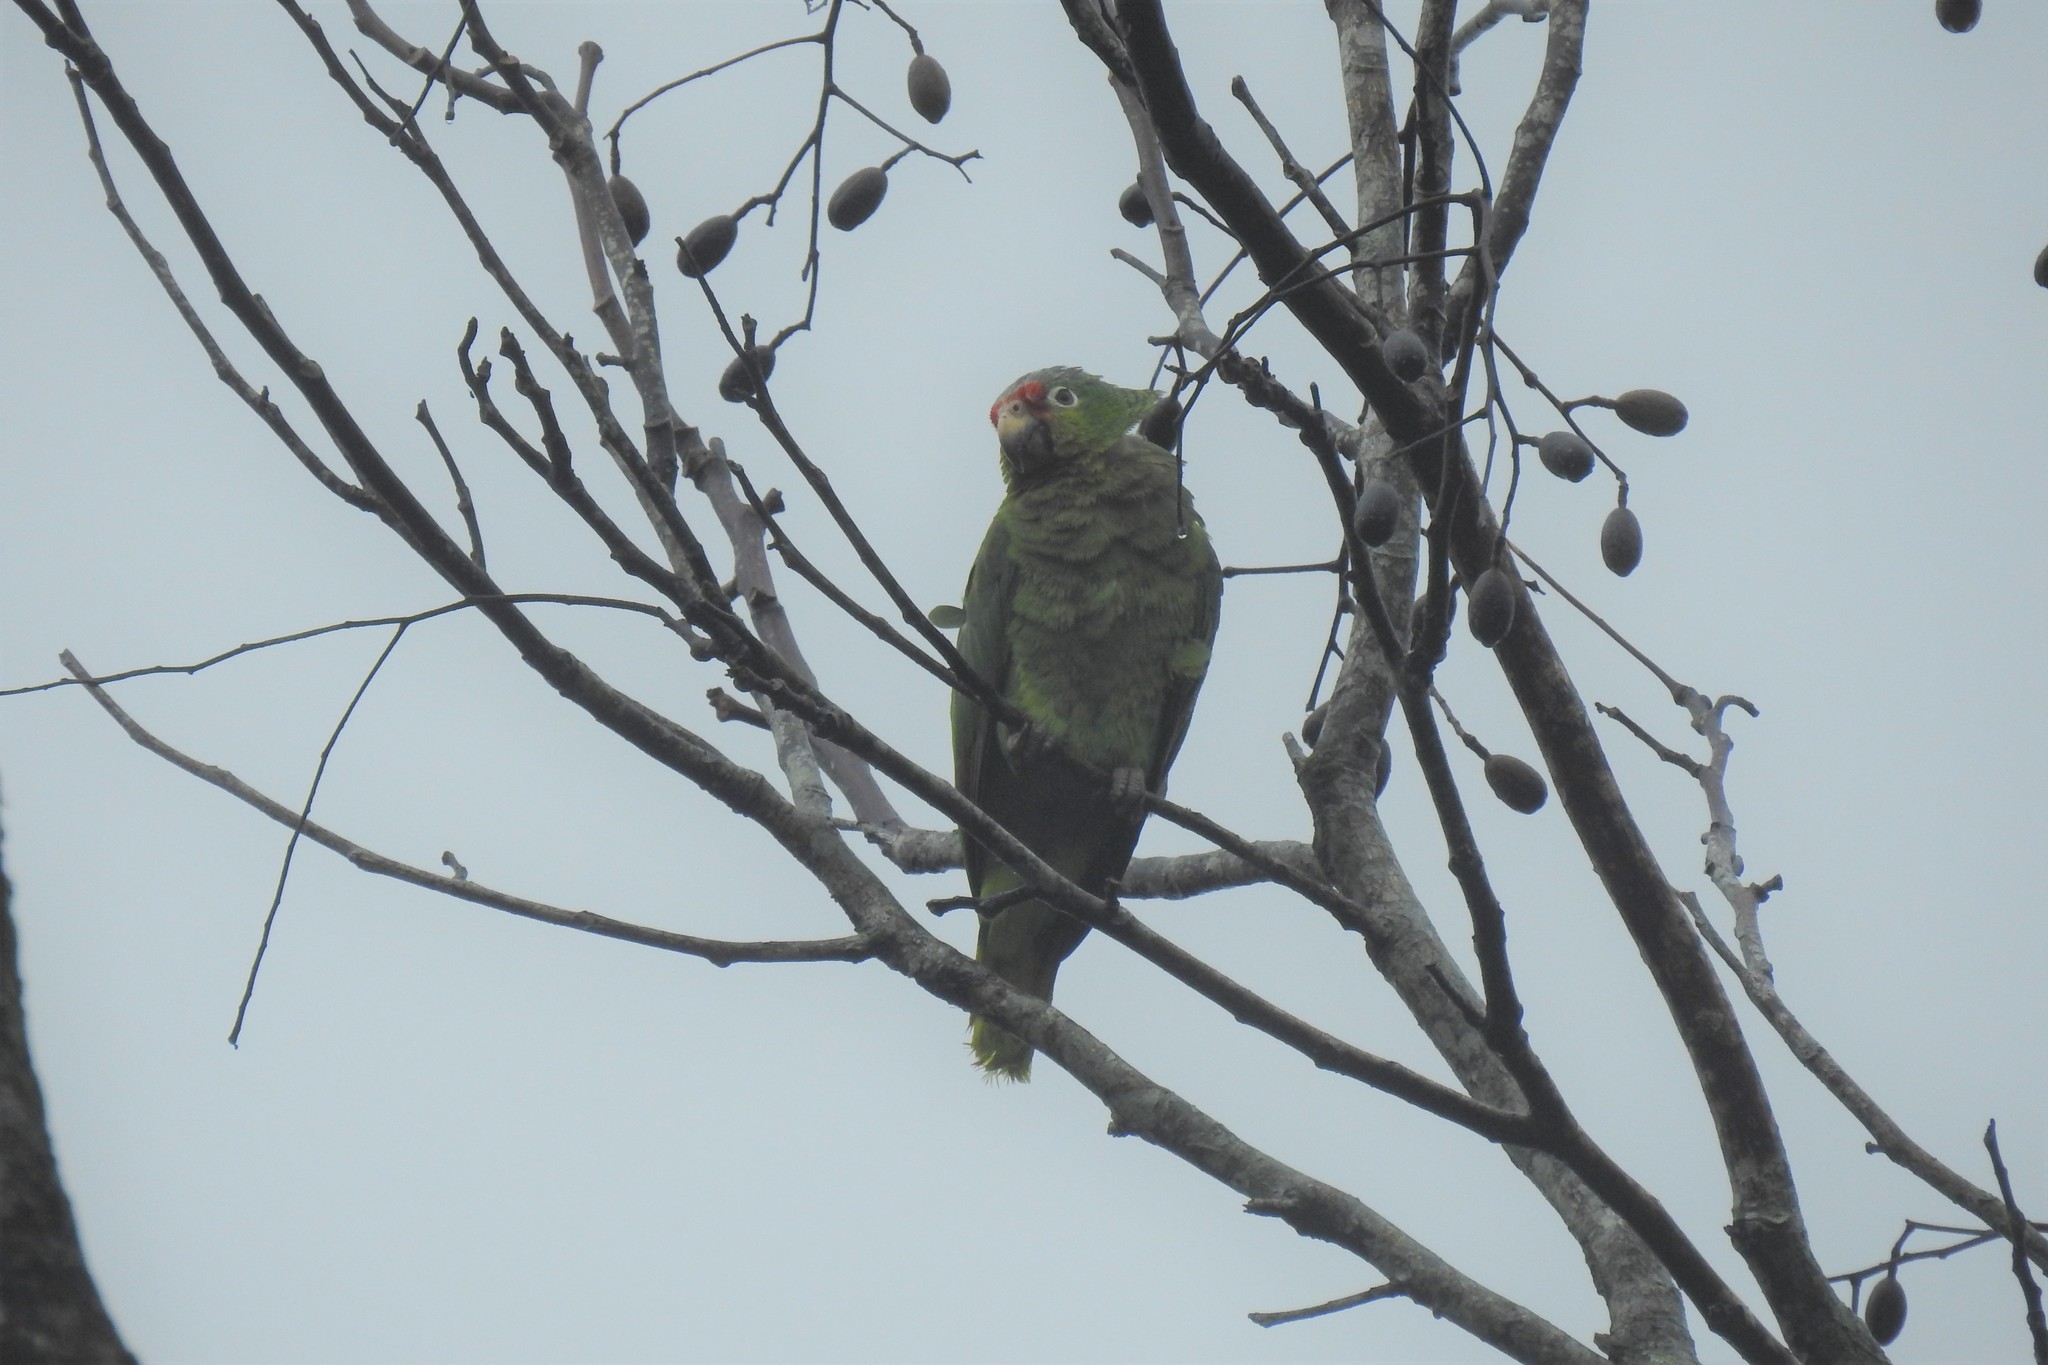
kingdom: Animalia
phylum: Chordata
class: Aves
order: Psittaciformes
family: Psittacidae
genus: Amazona
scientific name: Amazona autumnalis
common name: Red-lored amazon
